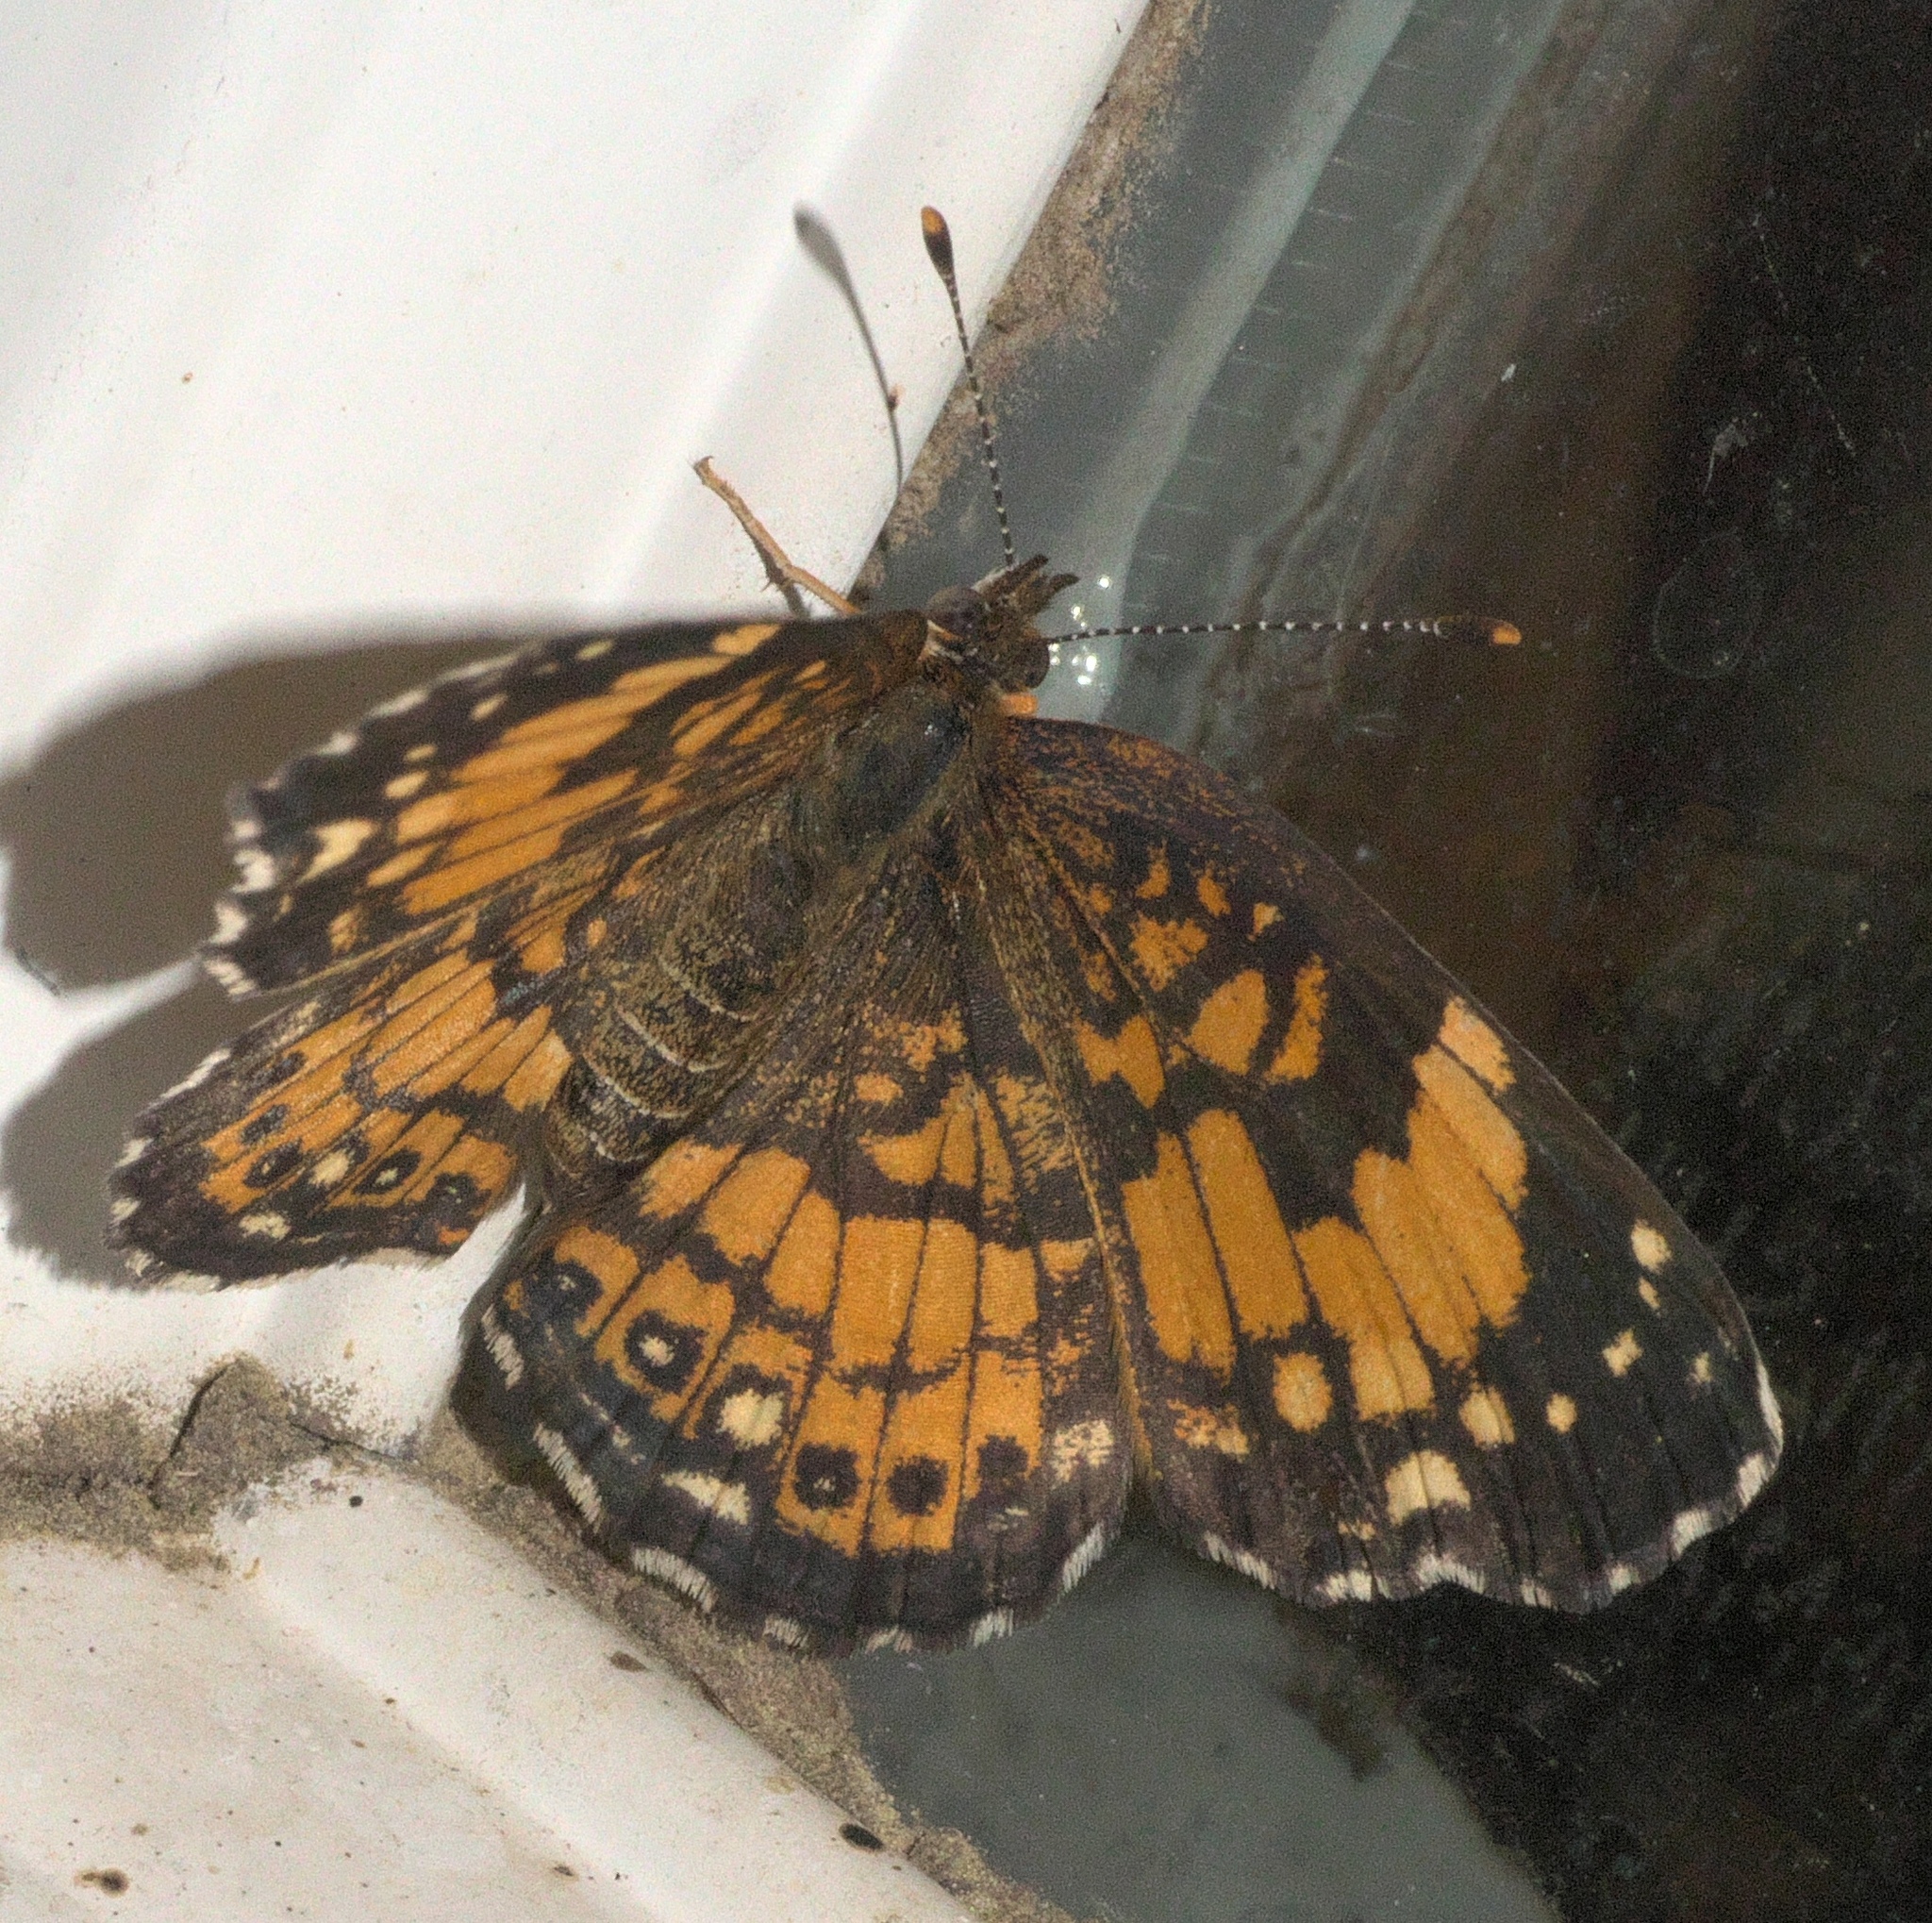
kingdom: Animalia
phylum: Arthropoda
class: Insecta
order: Lepidoptera
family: Nymphalidae
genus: Chlosyne
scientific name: Chlosyne nycteis
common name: Silvery checkerspot
